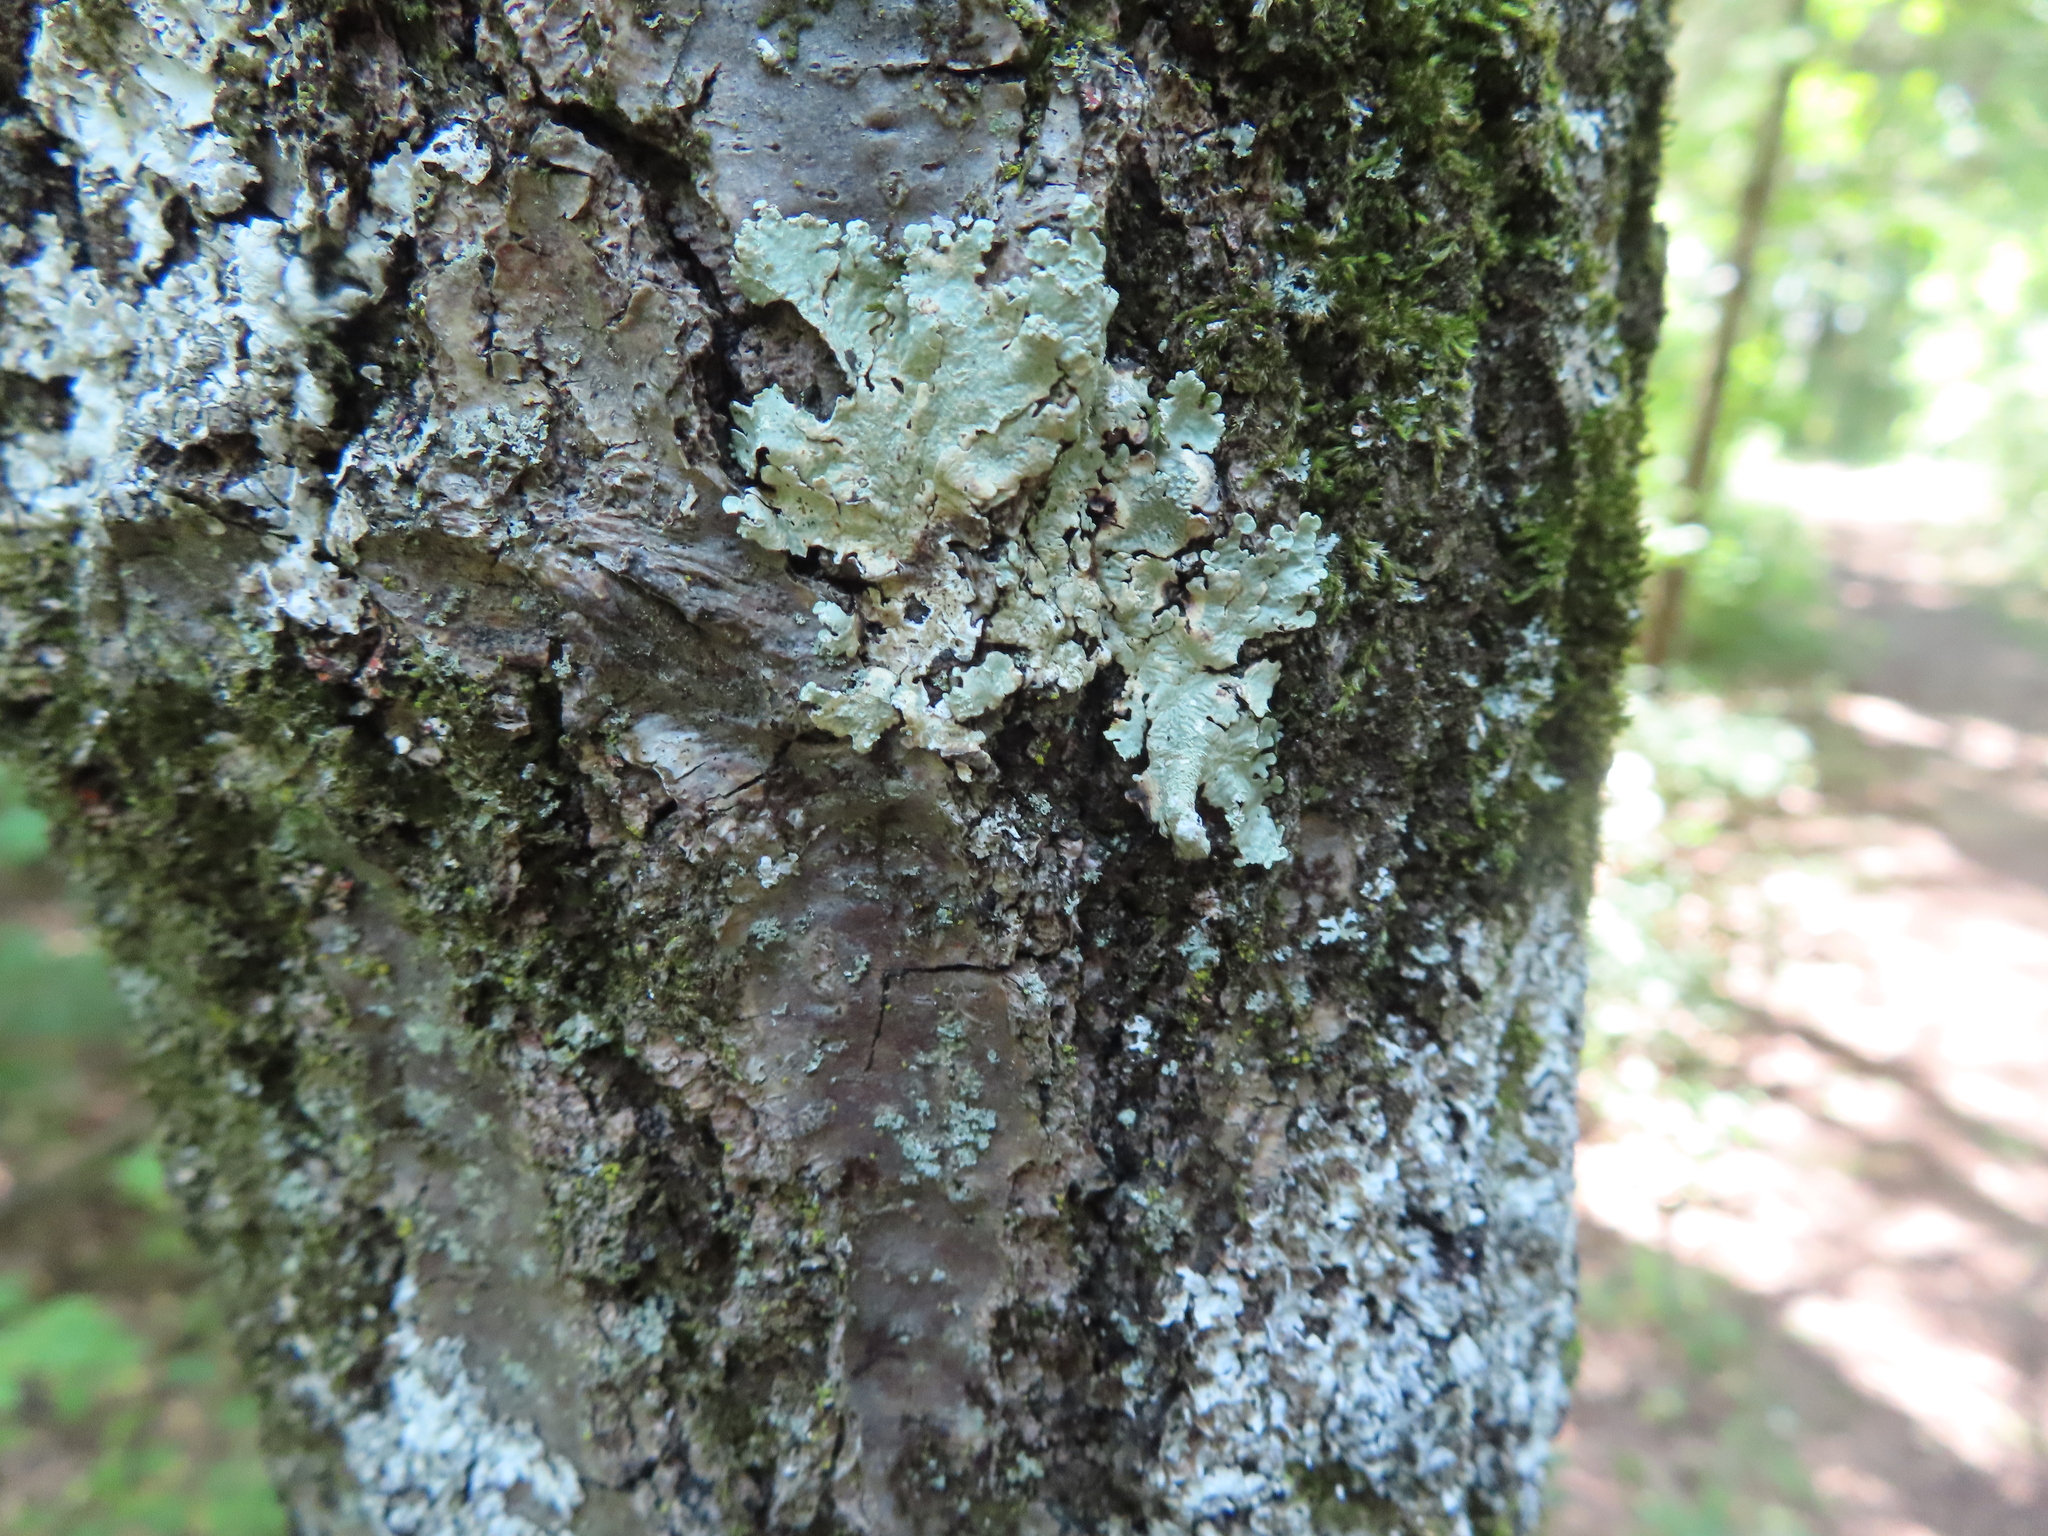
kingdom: Fungi
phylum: Ascomycota
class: Lecanoromycetes
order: Lecanorales
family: Parmeliaceae
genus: Flavoparmelia
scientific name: Flavoparmelia caperata
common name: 40-mile per hour lichen
